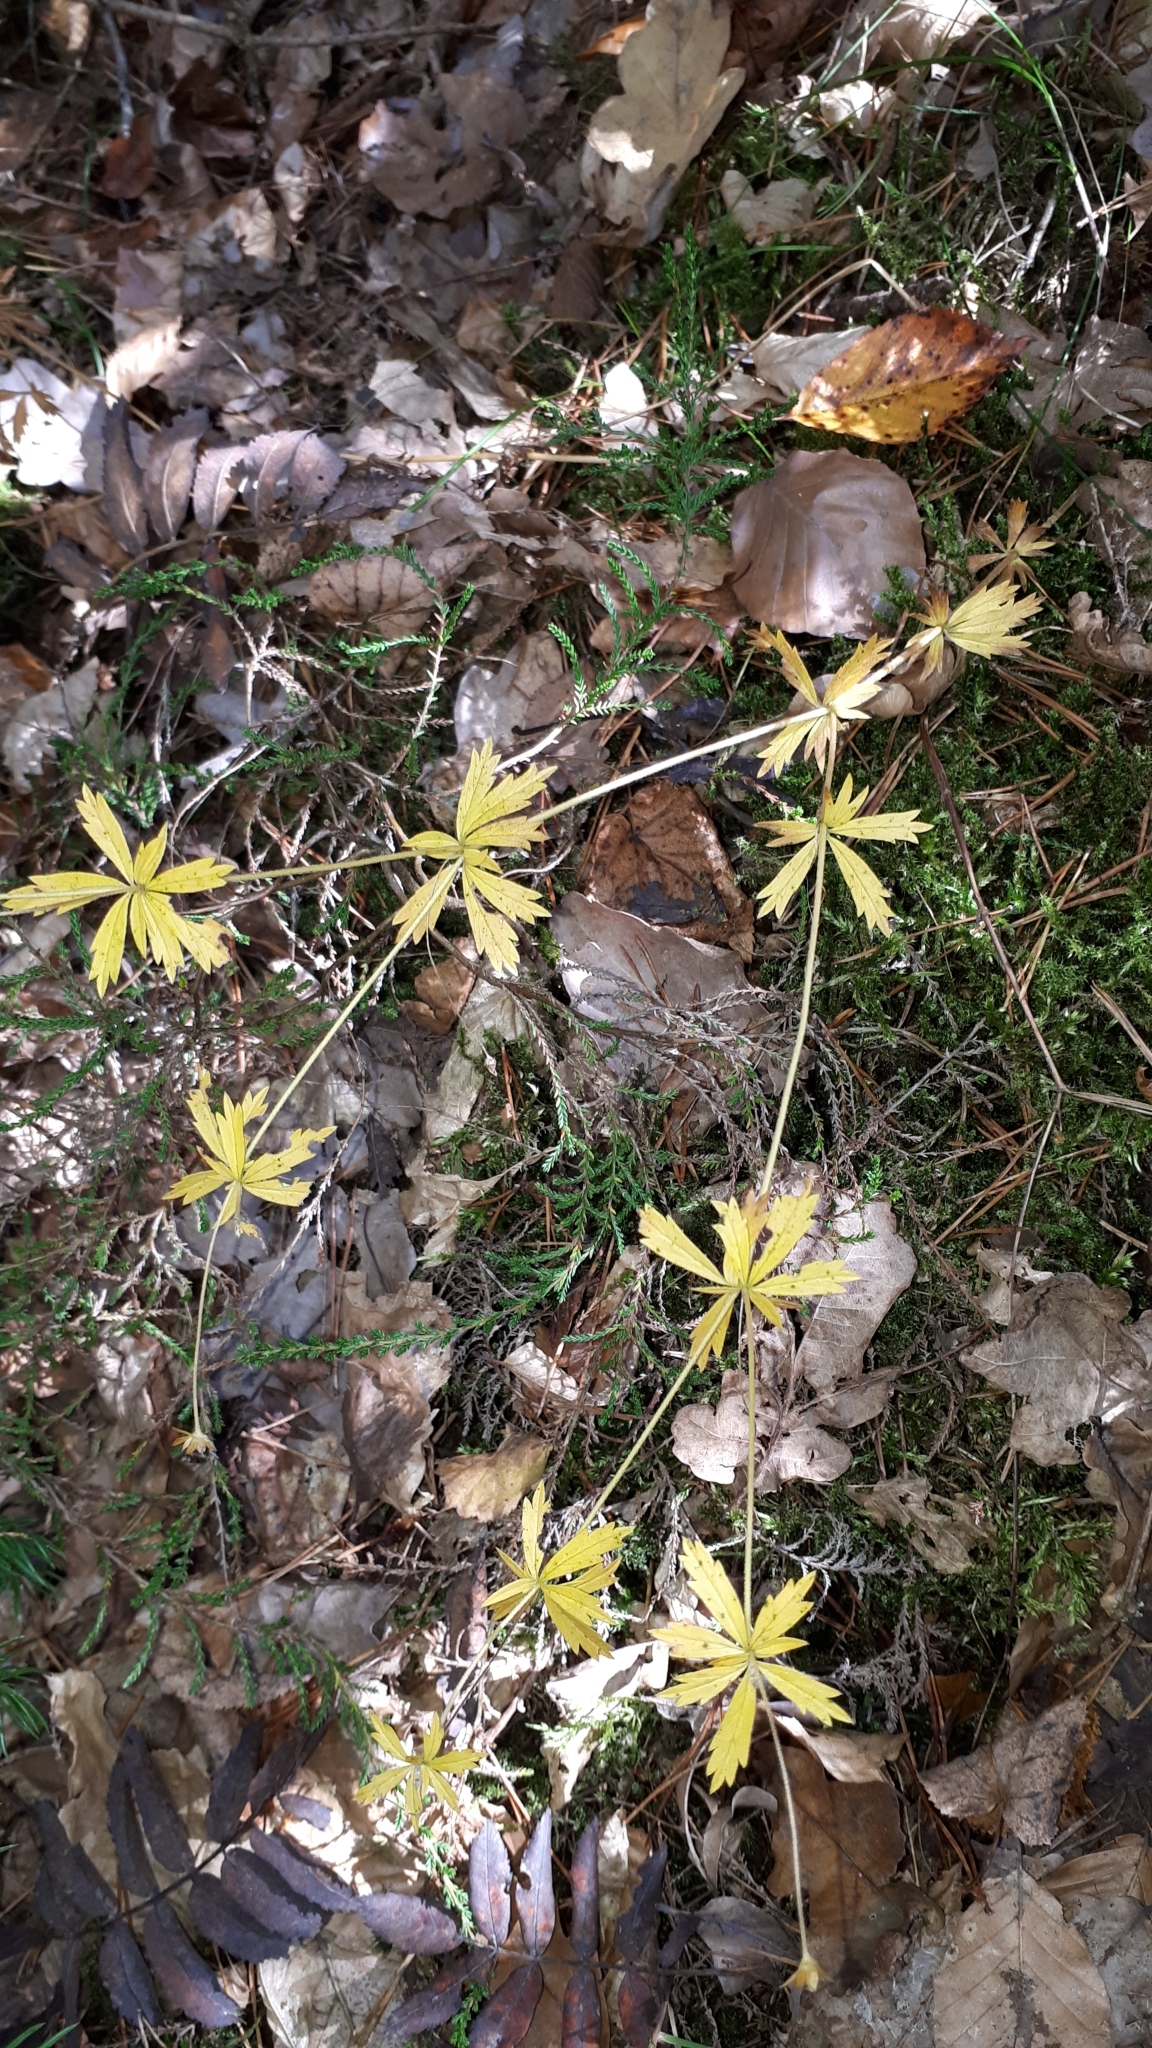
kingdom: Plantae
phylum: Tracheophyta
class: Magnoliopsida
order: Rosales
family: Rosaceae
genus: Potentilla
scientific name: Potentilla erecta
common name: Tormentil
